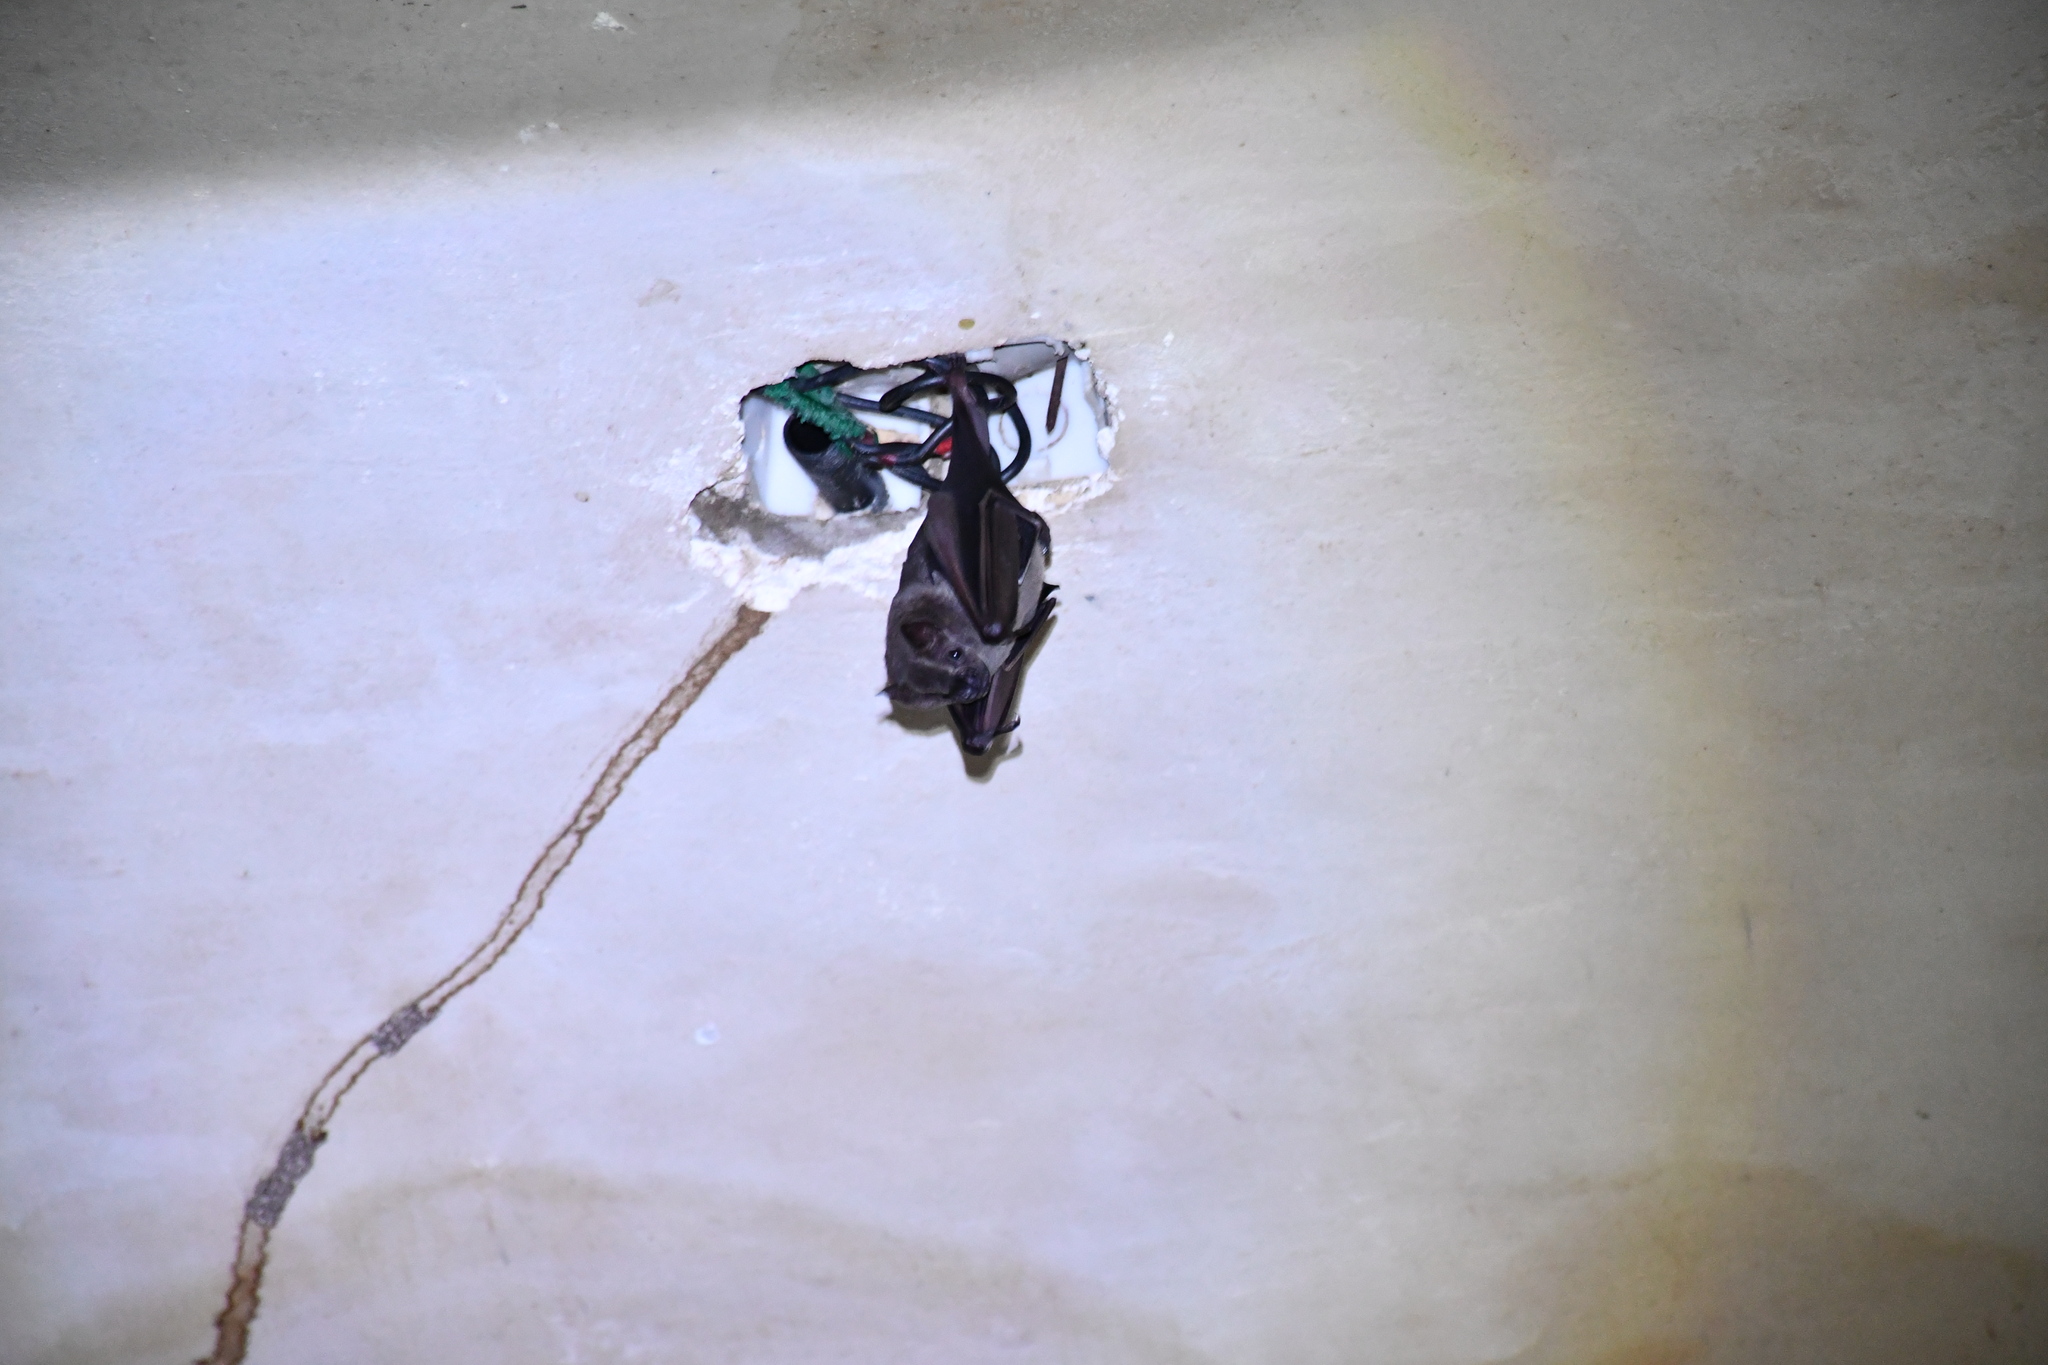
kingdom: Animalia
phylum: Chordata
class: Mammalia
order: Chiroptera
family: Phyllostomidae
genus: Artibeus
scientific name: Artibeus planirostris
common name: Flat-faced fruit-eating bat
